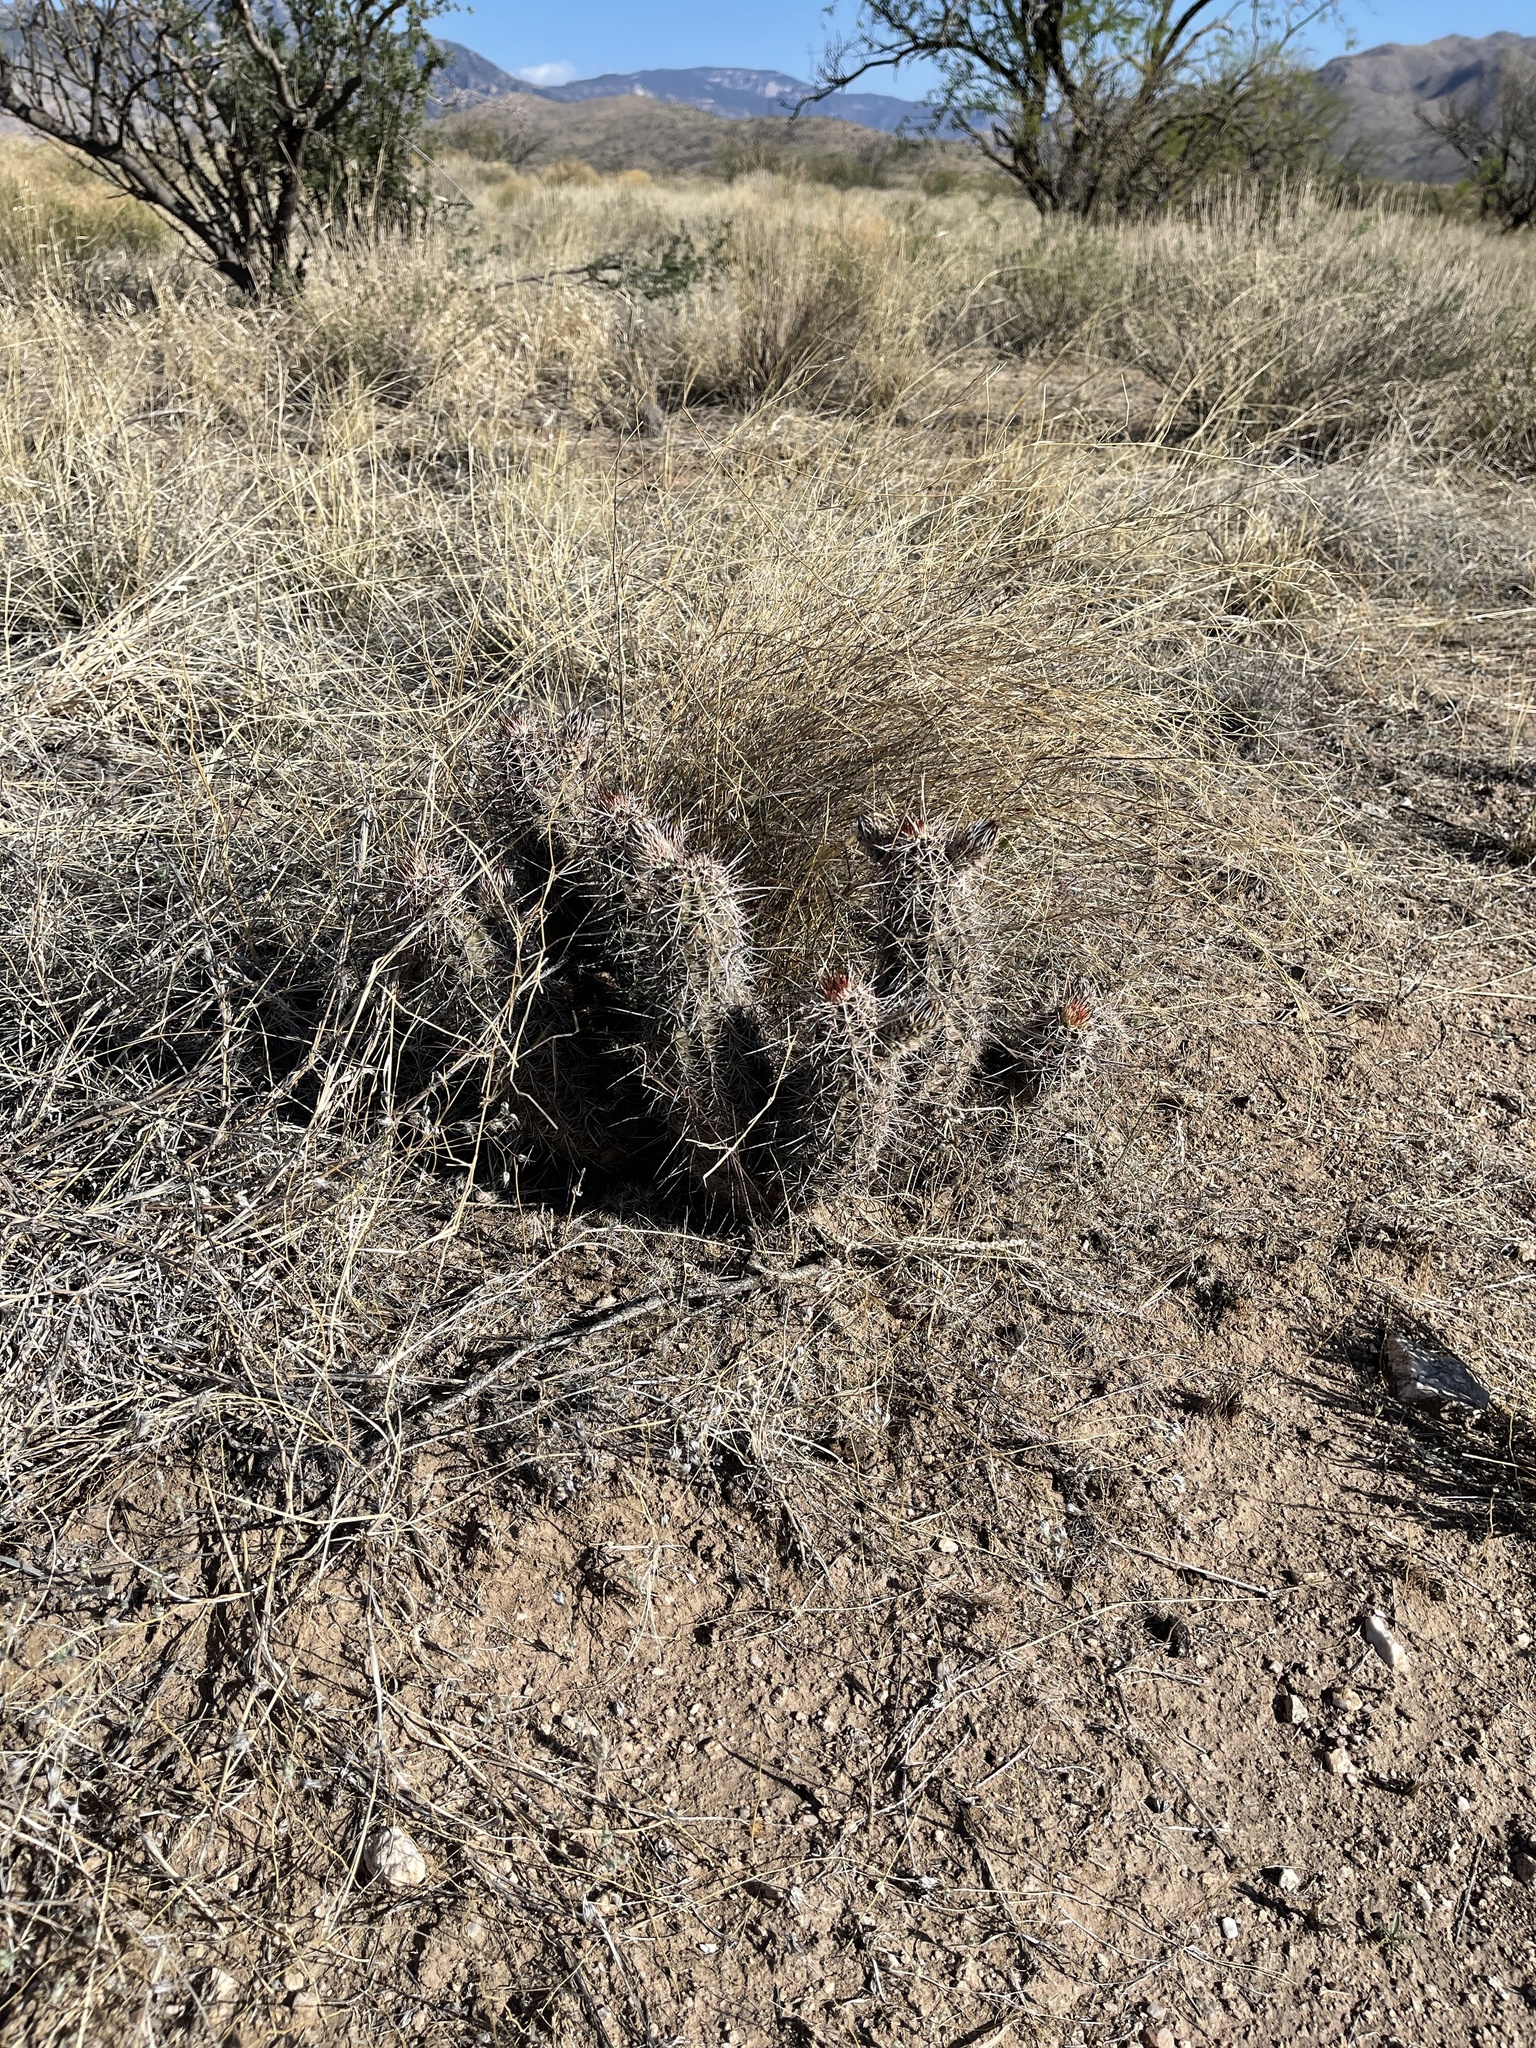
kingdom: Plantae
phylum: Tracheophyta
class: Magnoliopsida
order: Caryophyllales
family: Cactaceae
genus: Echinocereus
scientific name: Echinocereus fasciculatus
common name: Bundle hedgehog
